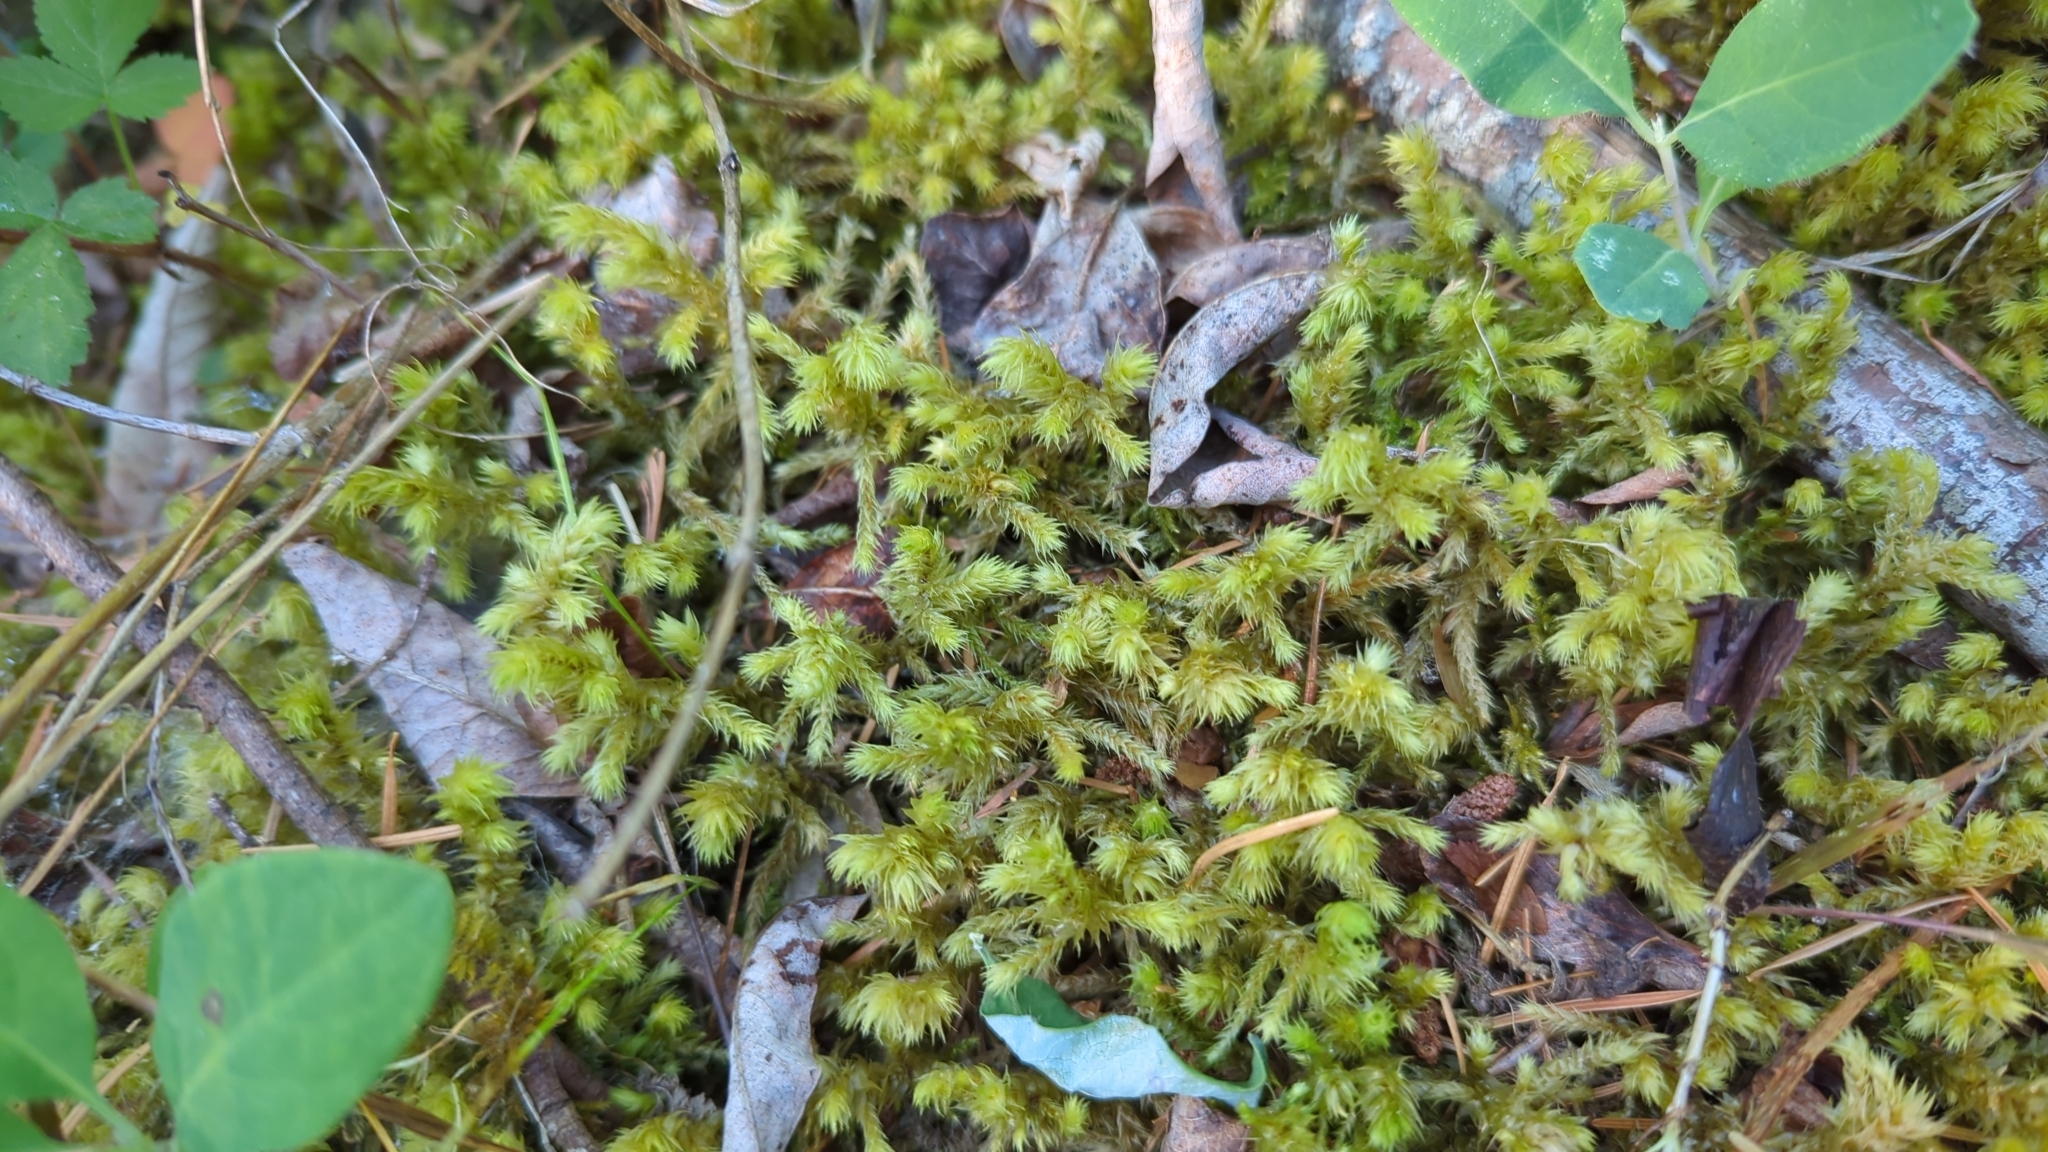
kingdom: Plantae
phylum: Bryophyta
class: Bryopsida
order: Hypnales
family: Hylocomiaceae
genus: Hylocomiadelphus
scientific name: Hylocomiadelphus triquetrus
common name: Rough goose neck moss
